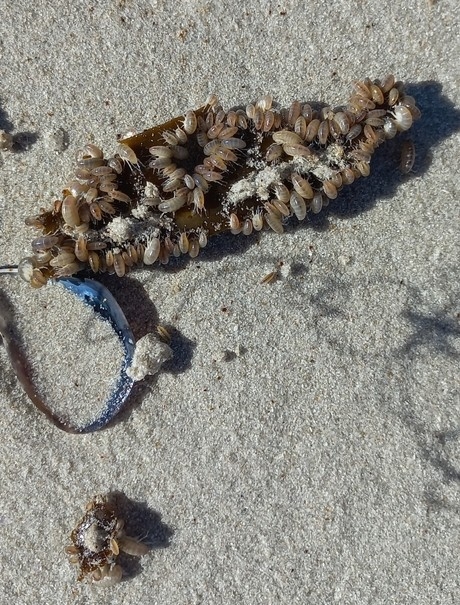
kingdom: Animalia
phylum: Arthropoda
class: Malacostraca
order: Amphipoda
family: Talitridae
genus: Capeorchestia
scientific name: Capeorchestia capensis
